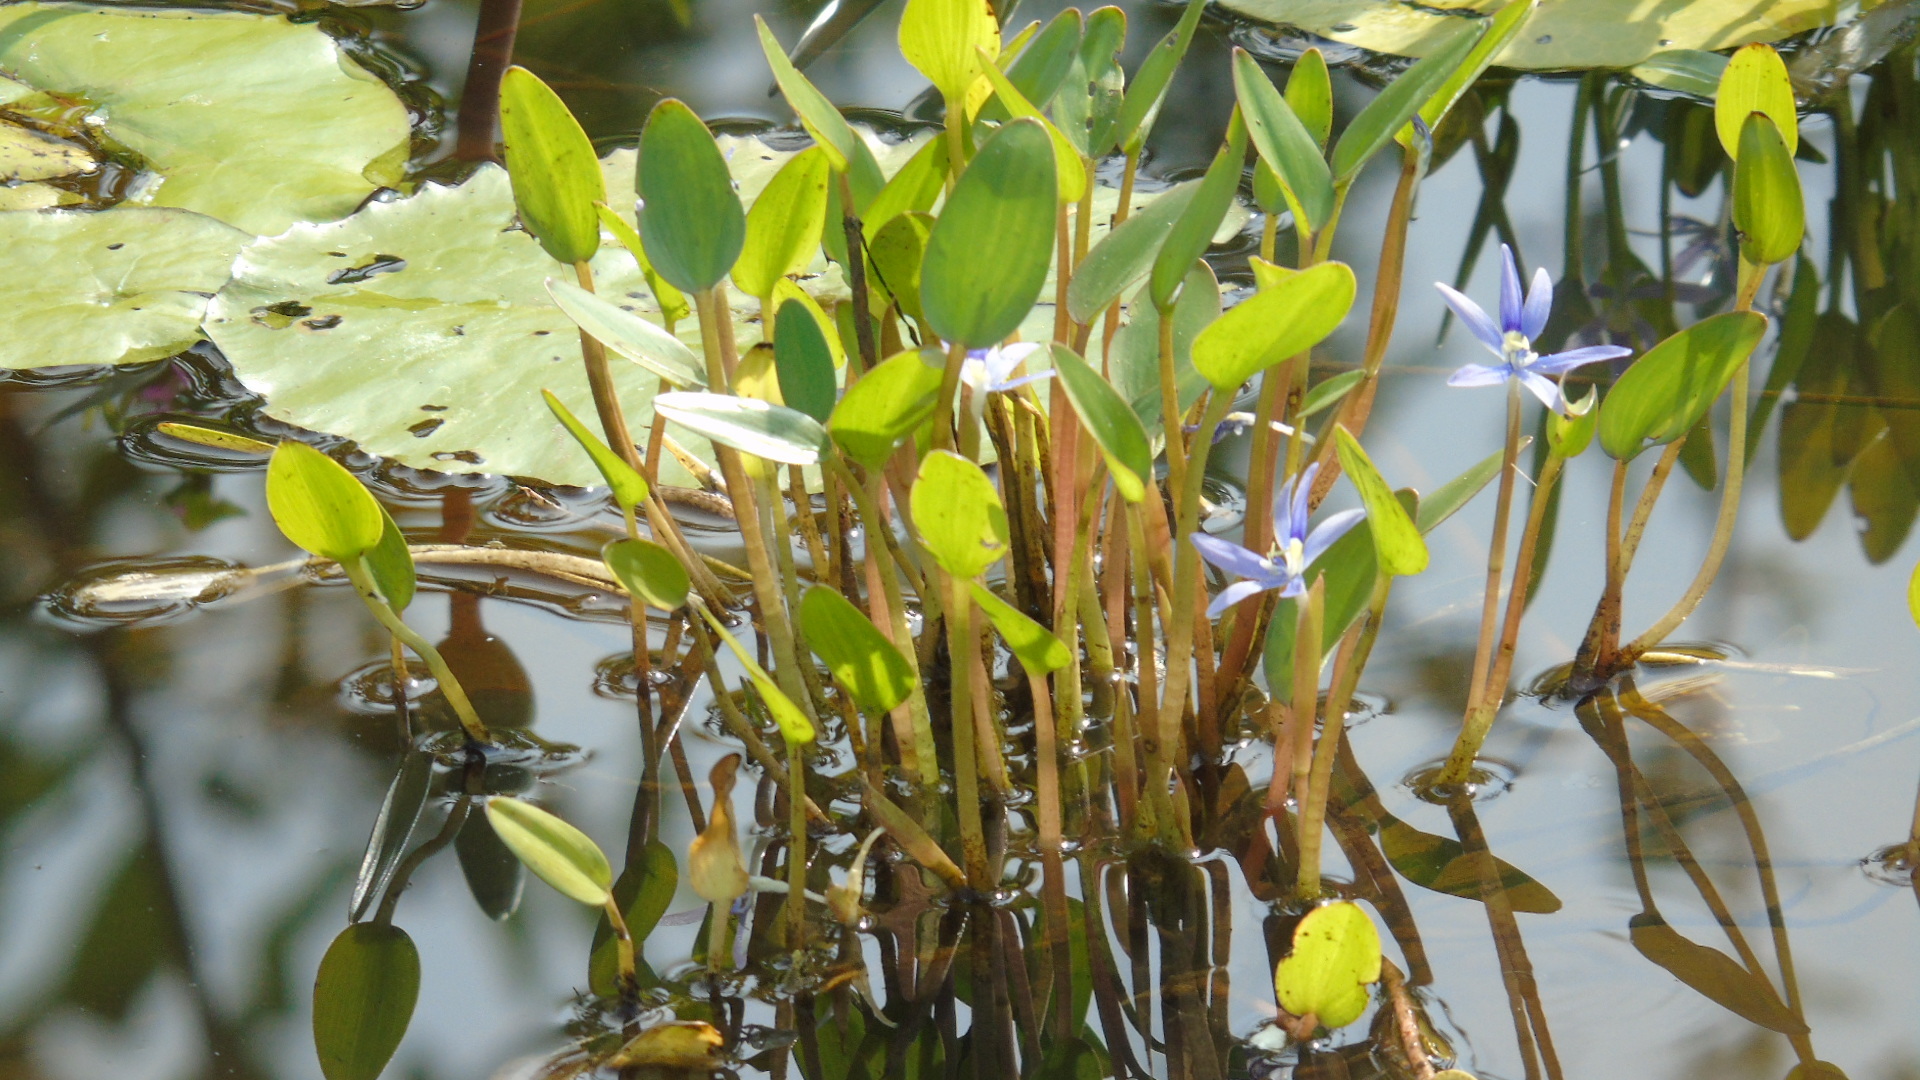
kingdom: Plantae
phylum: Tracheophyta
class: Liliopsida
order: Commelinales
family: Pontederiaceae
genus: Heteranthera
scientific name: Heteranthera limosa
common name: Blue mud-plantain
